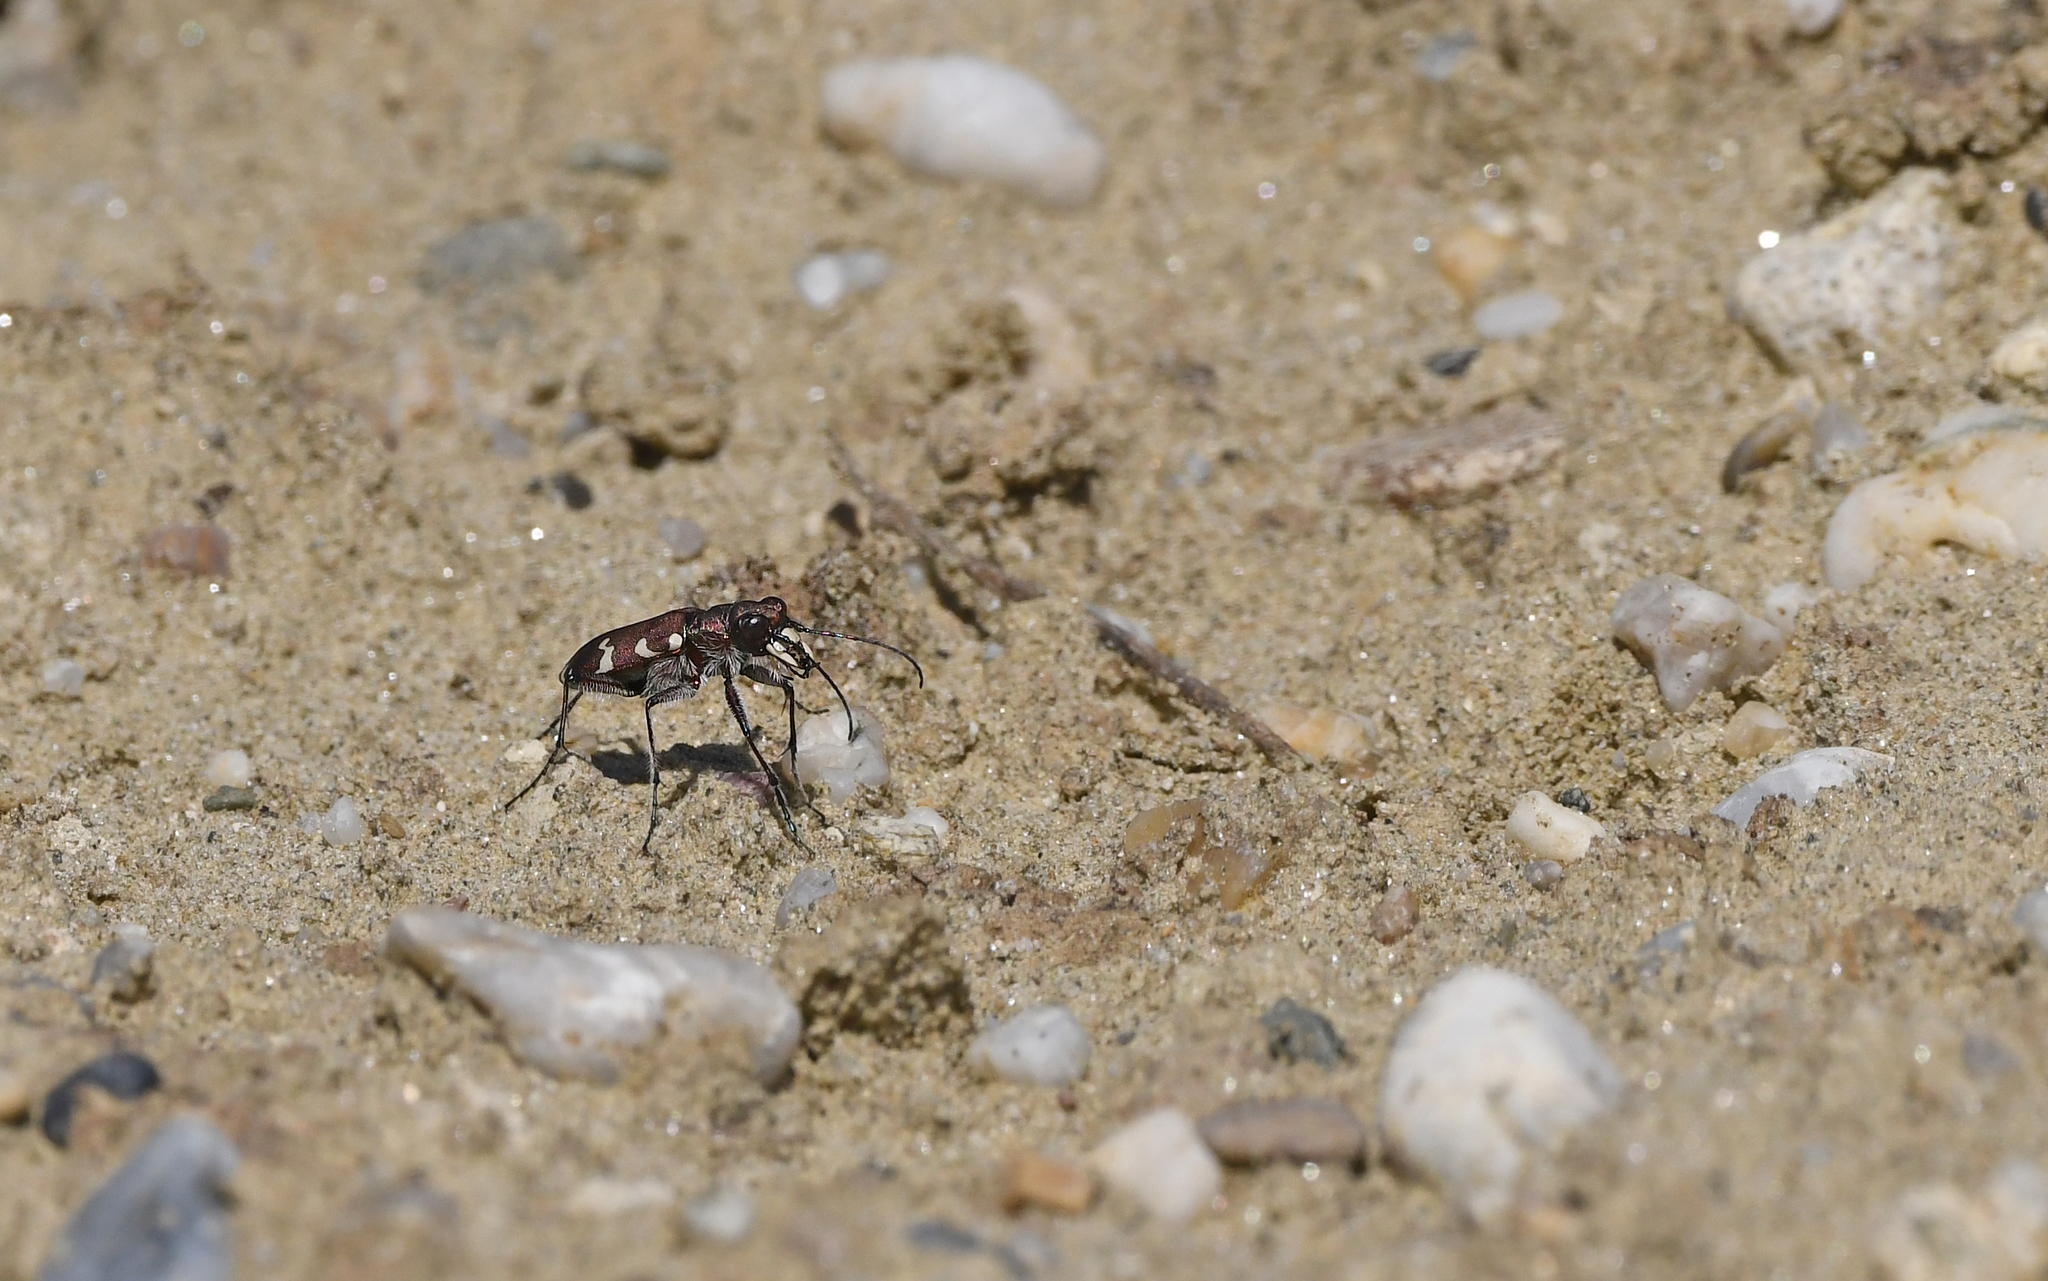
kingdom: Animalia
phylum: Arthropoda
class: Insecta
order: Coleoptera
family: Carabidae
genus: Cicindela
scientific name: Cicindela hybrida
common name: Northern dune tiger beetle
